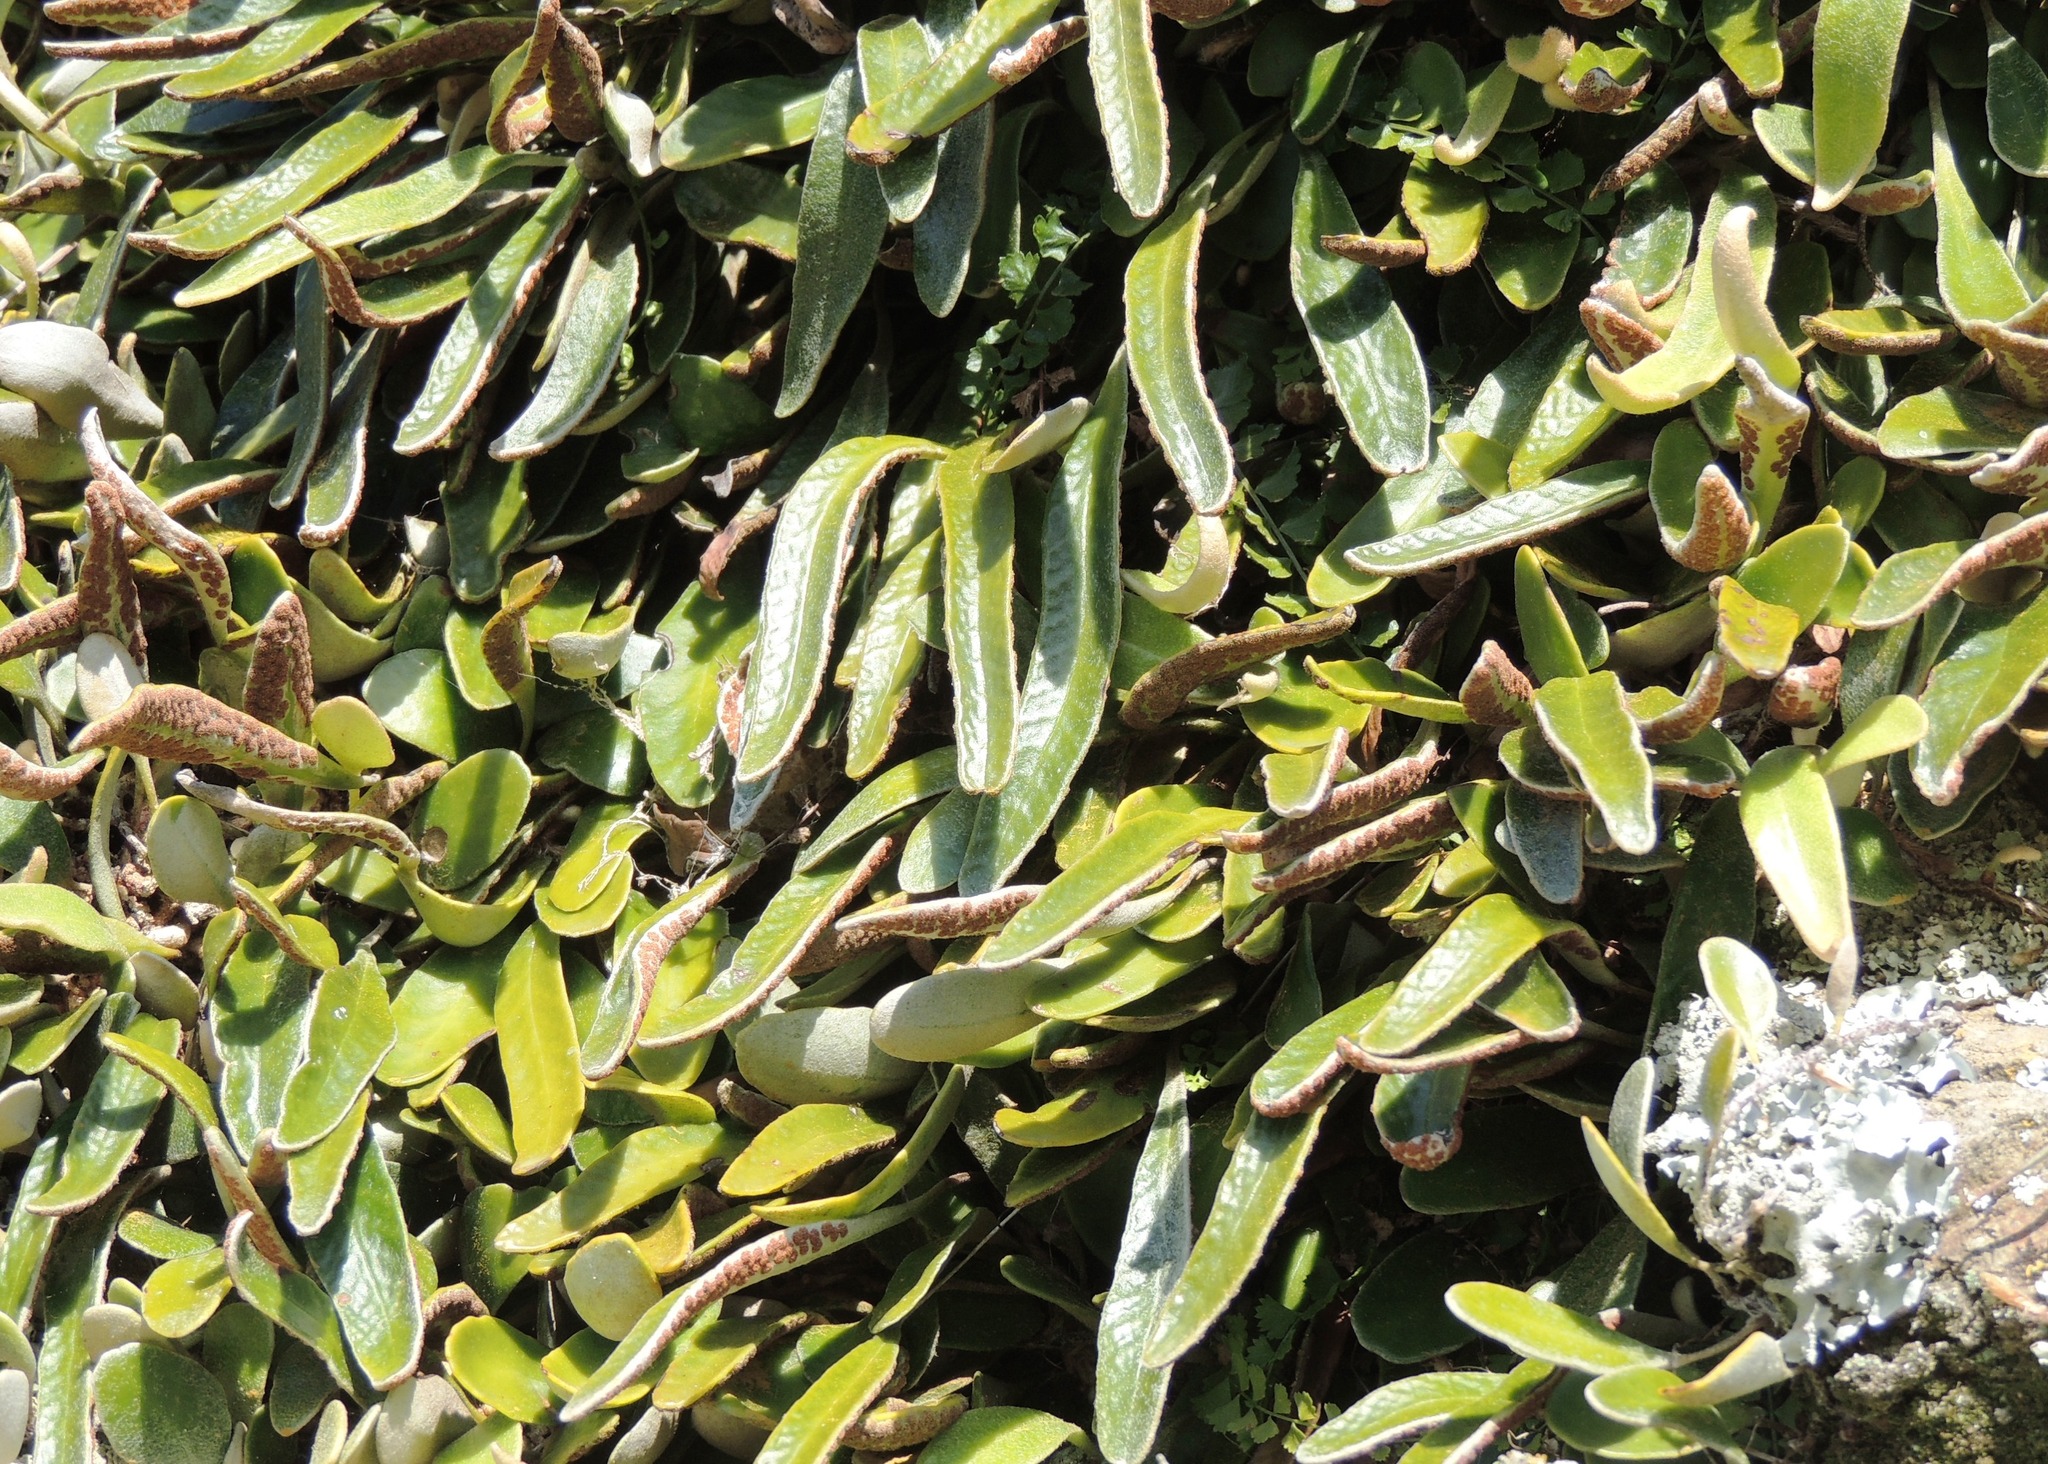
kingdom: Plantae
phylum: Tracheophyta
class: Polypodiopsida
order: Polypodiales
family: Polypodiaceae
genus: Pyrrosia
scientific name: Pyrrosia eleagnifolia
